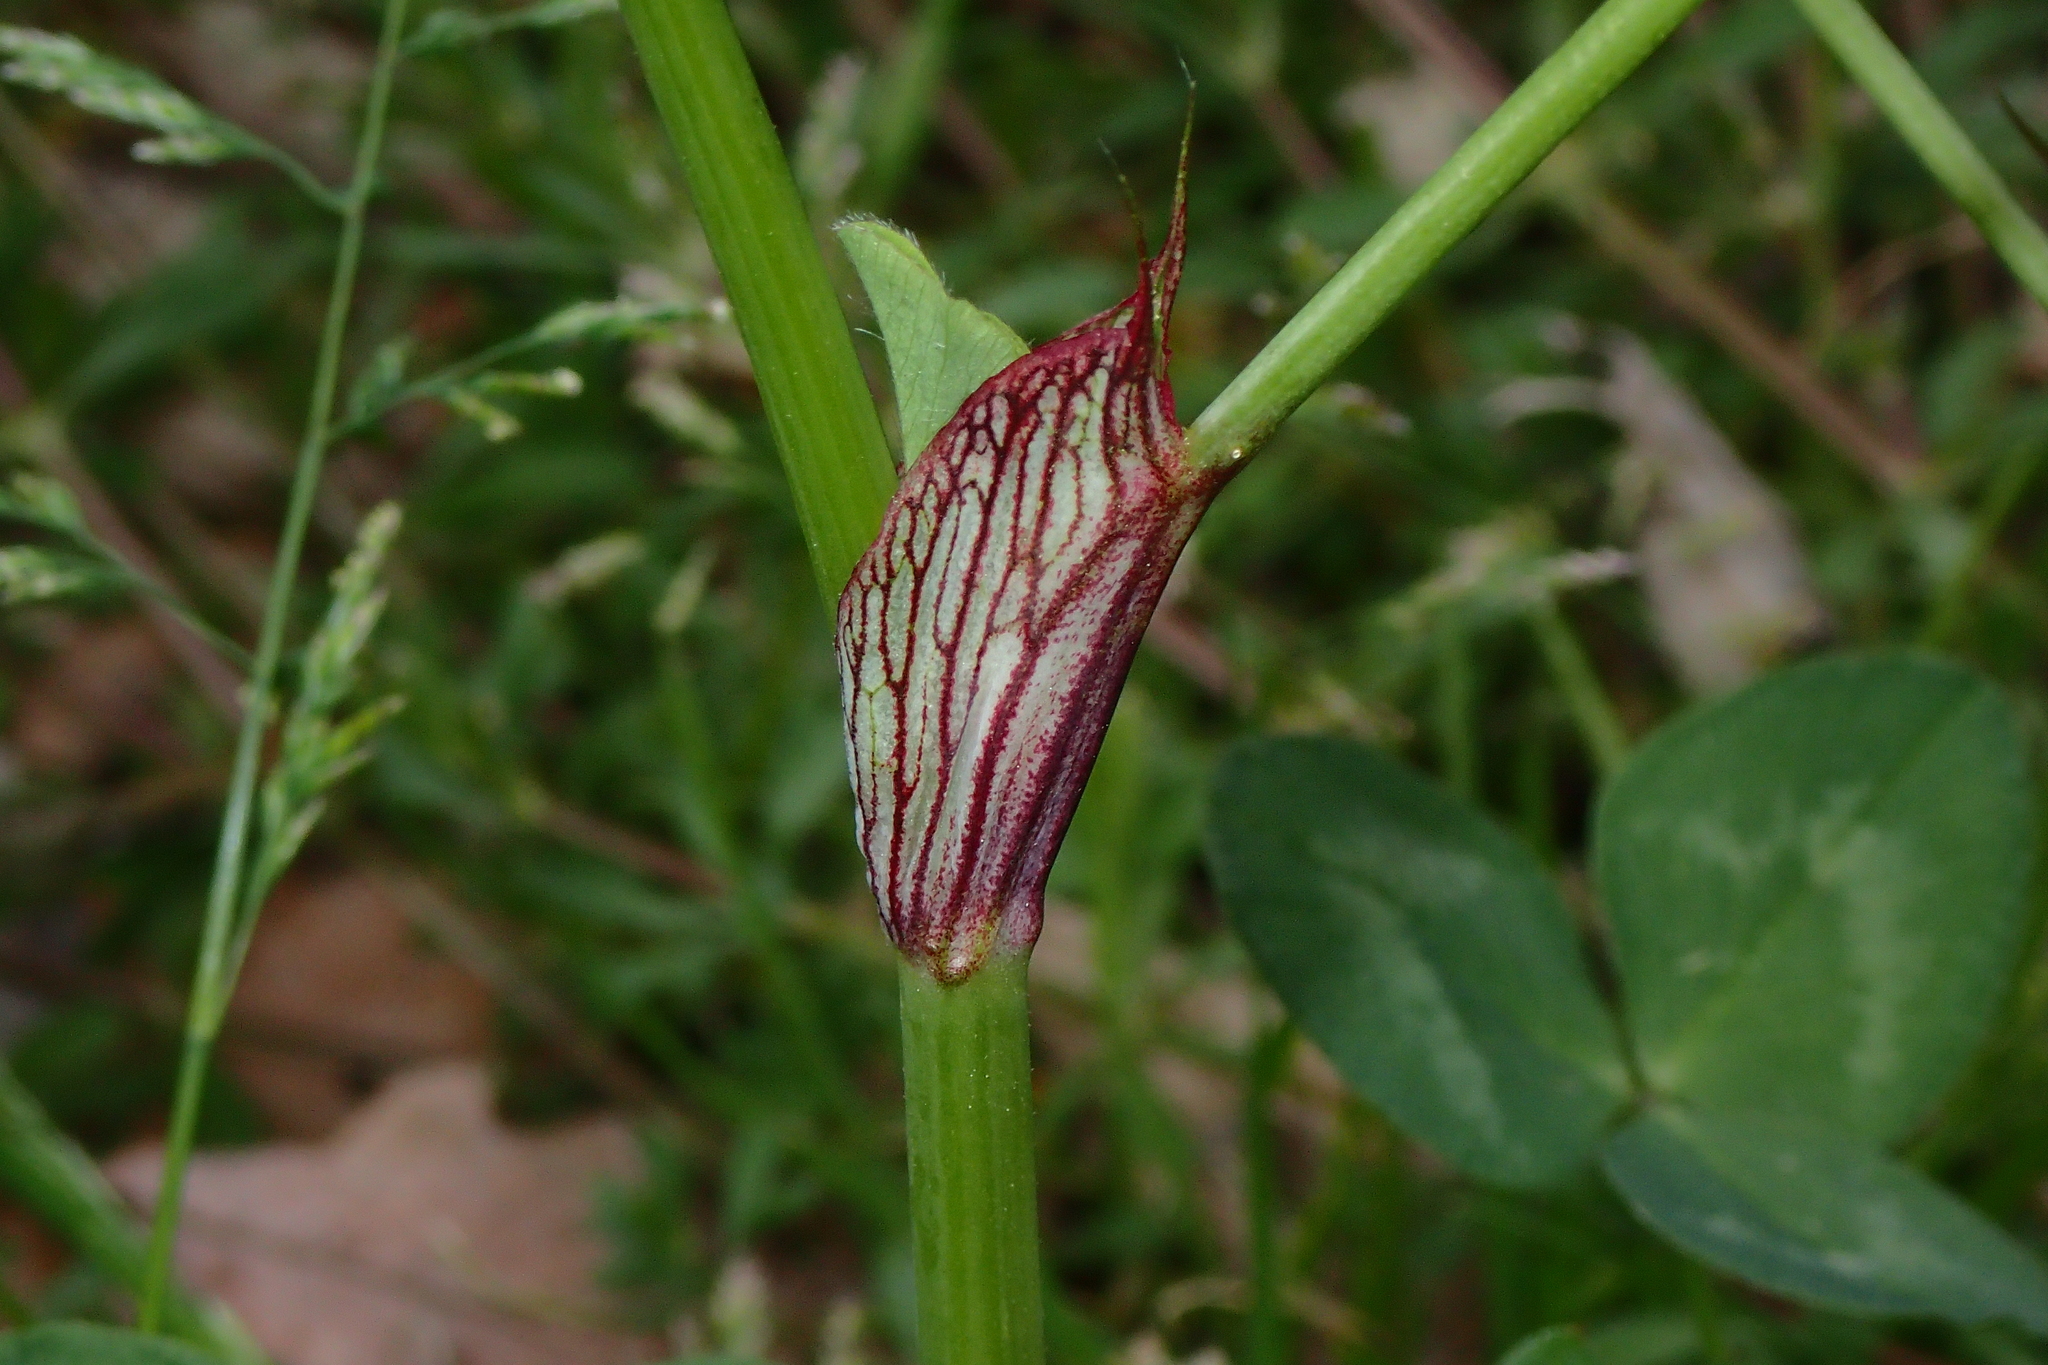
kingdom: Plantae
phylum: Tracheophyta
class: Magnoliopsida
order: Fabales
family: Fabaceae
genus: Trifolium
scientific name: Trifolium pratense
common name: Red clover
